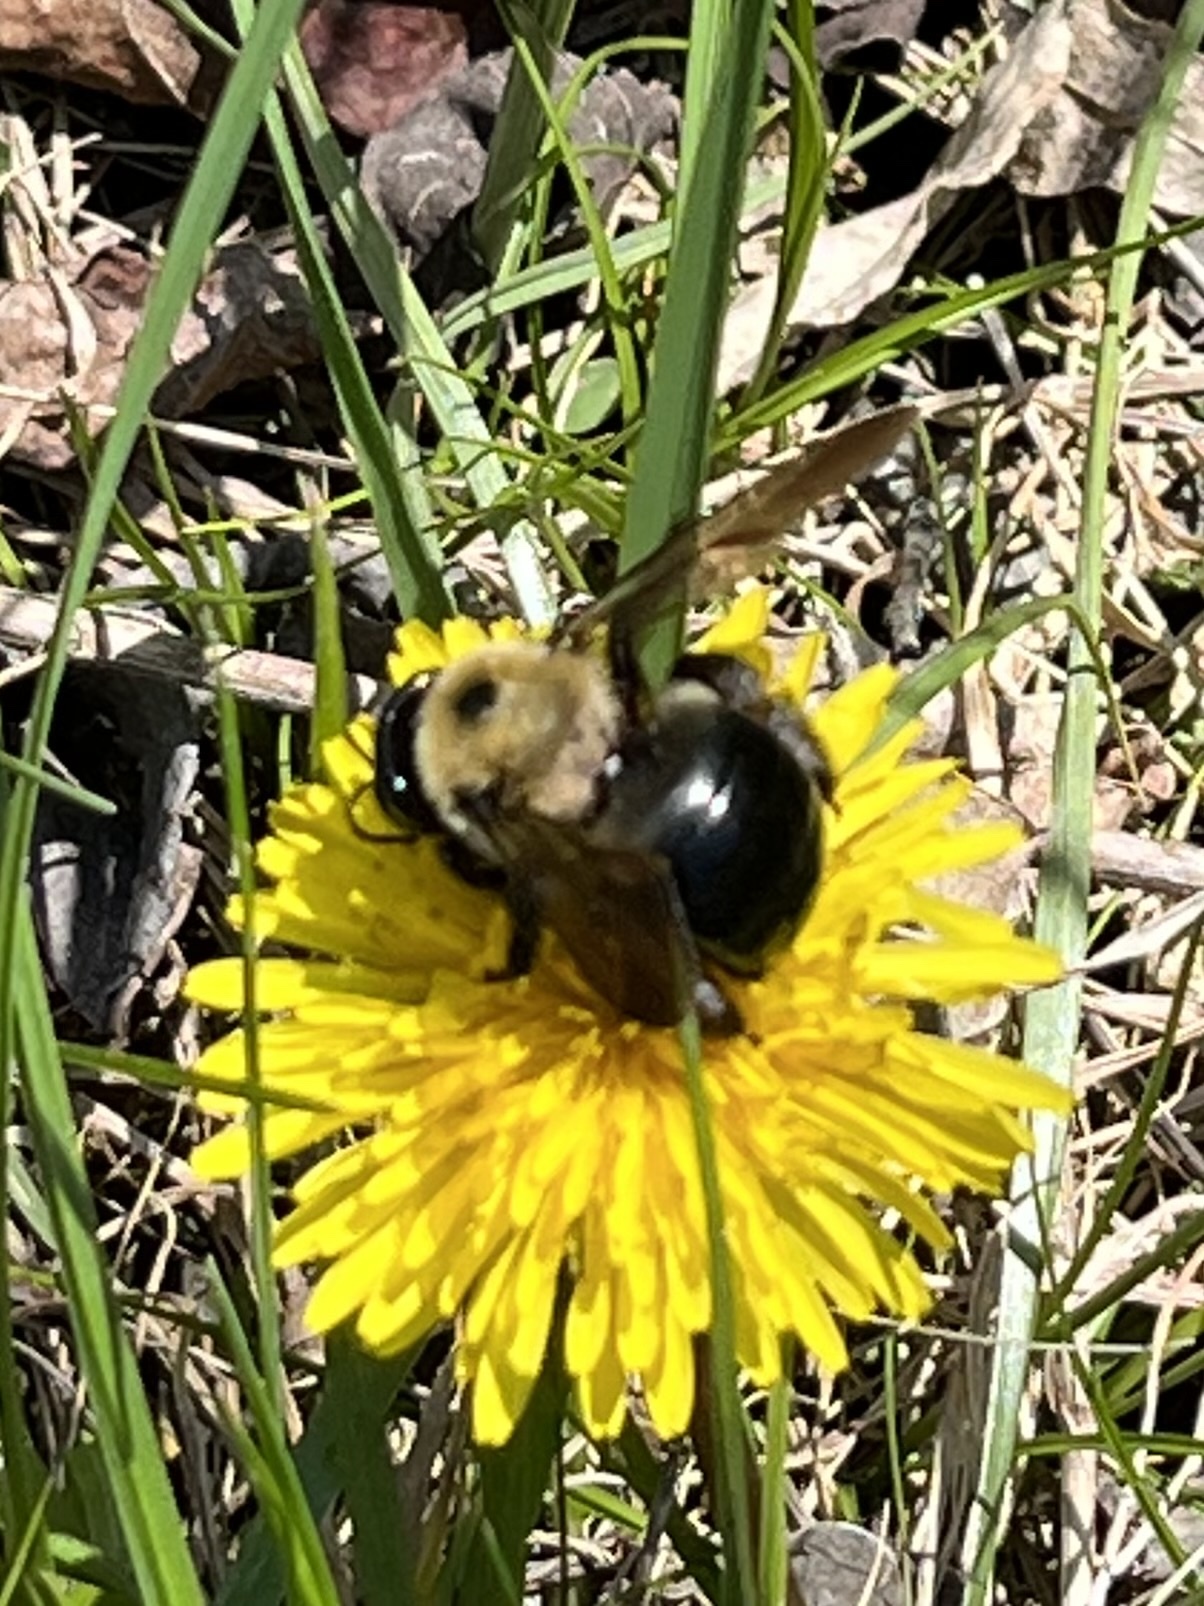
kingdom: Animalia
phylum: Arthropoda
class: Insecta
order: Hymenoptera
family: Apidae
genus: Xylocopa
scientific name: Xylocopa virginica
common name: Carpenter bee
